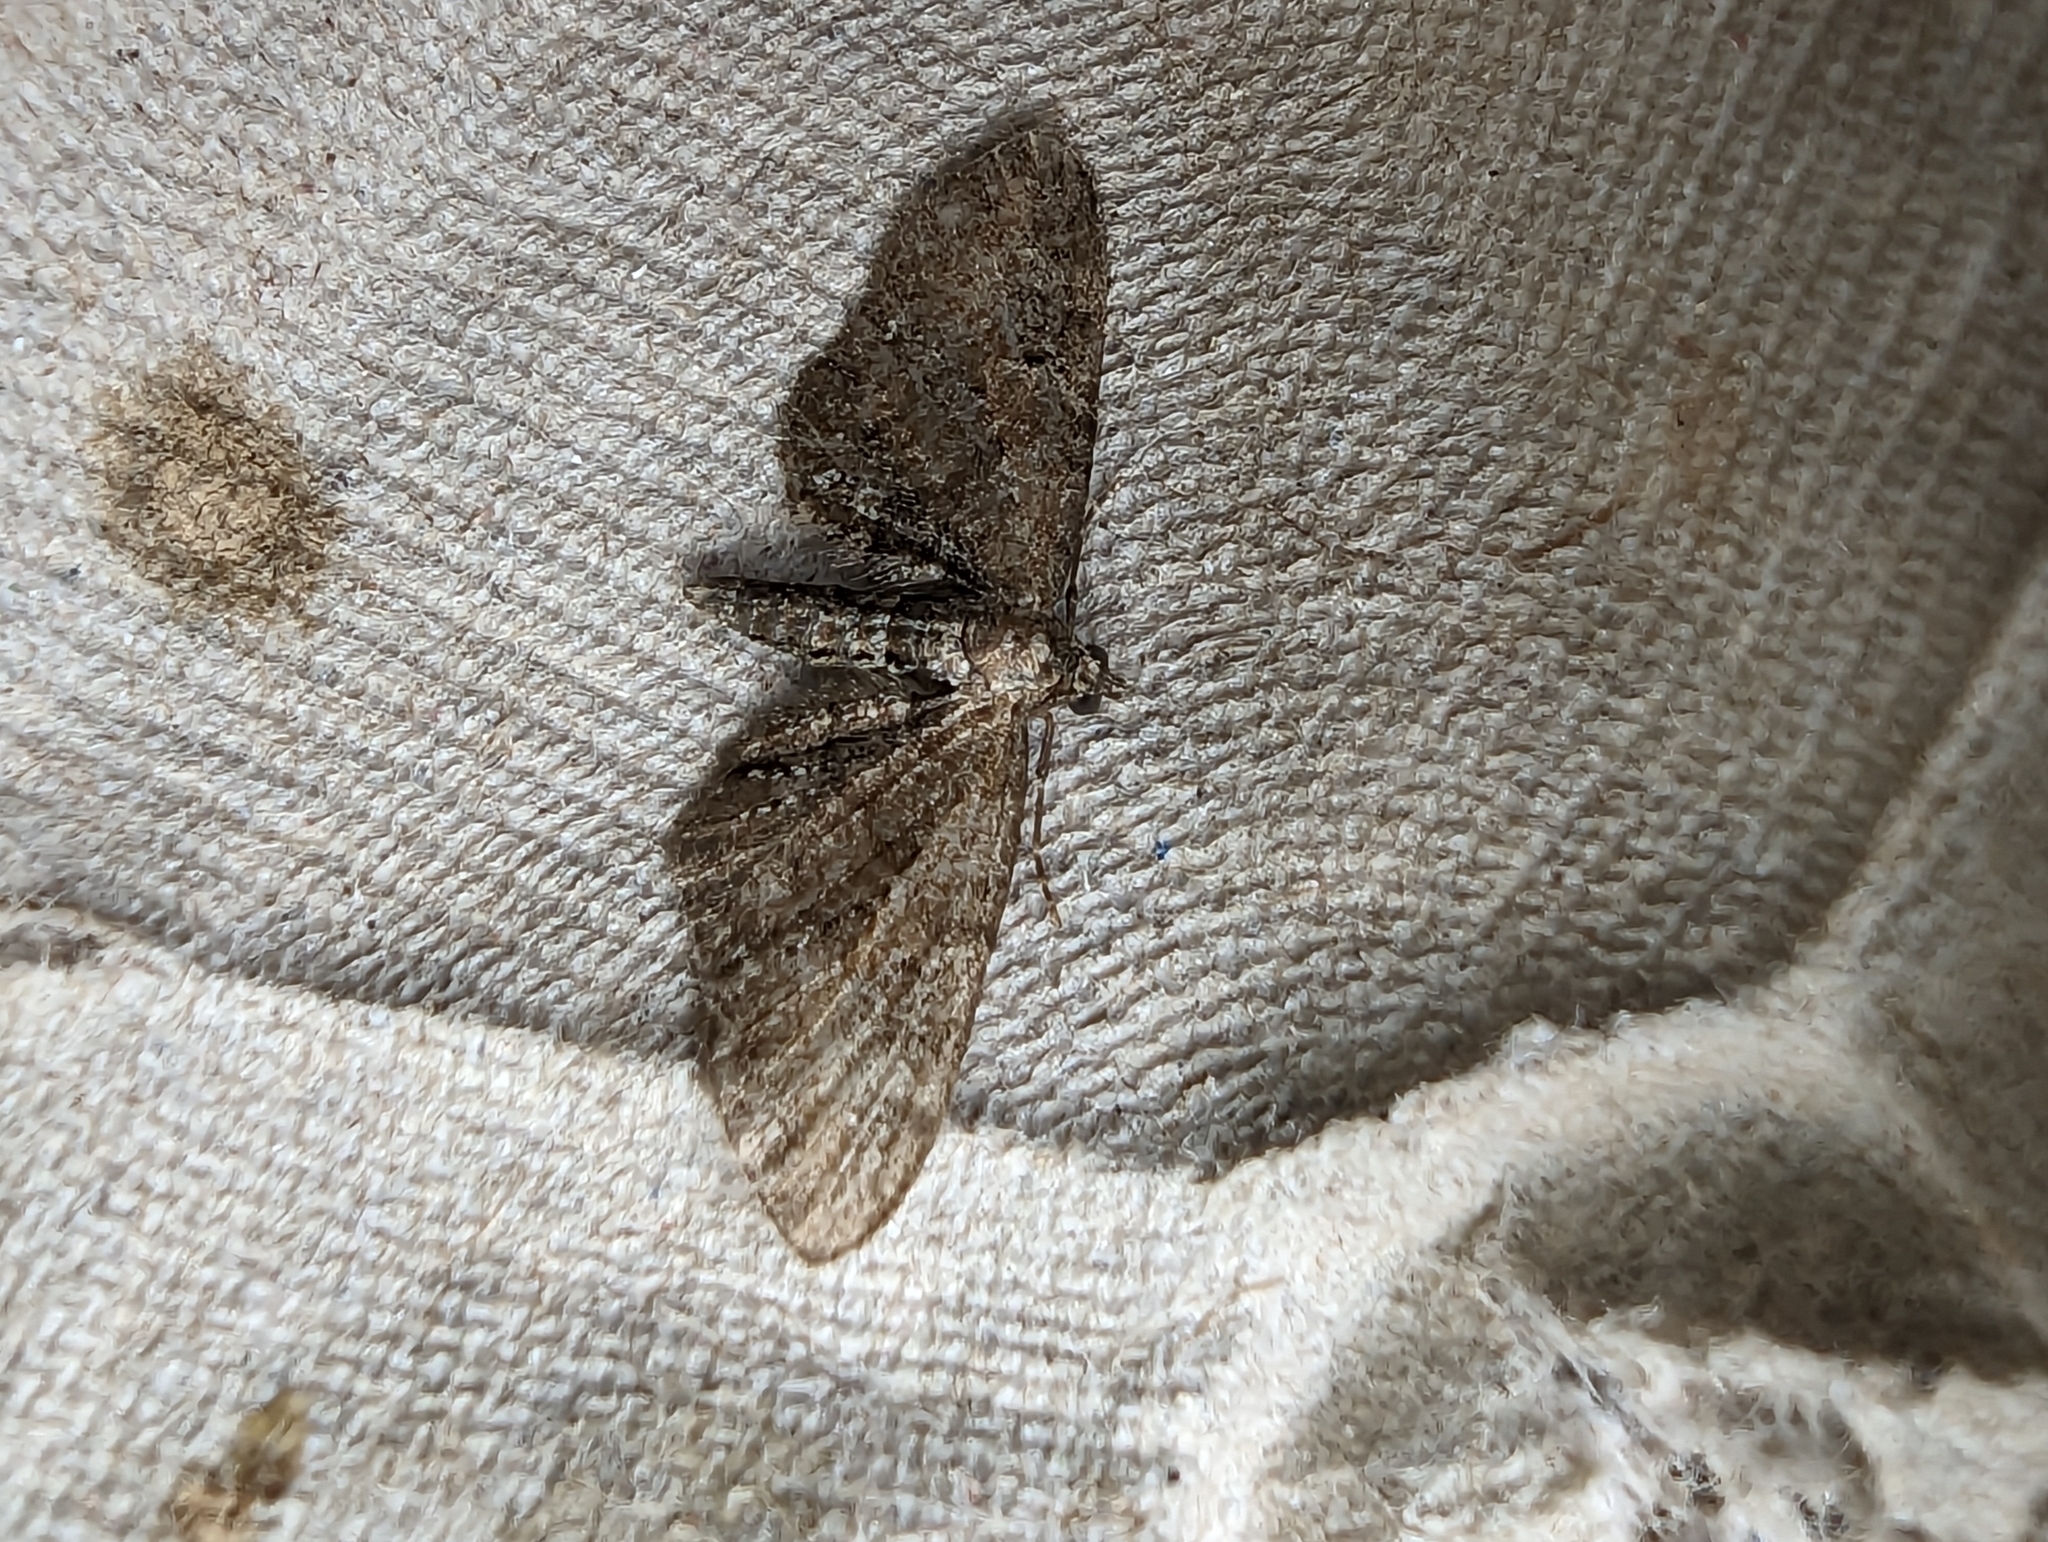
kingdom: Animalia
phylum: Arthropoda
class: Insecta
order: Lepidoptera
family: Geometridae
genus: Eupithecia
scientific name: Eupithecia vulgata
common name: Common pug
